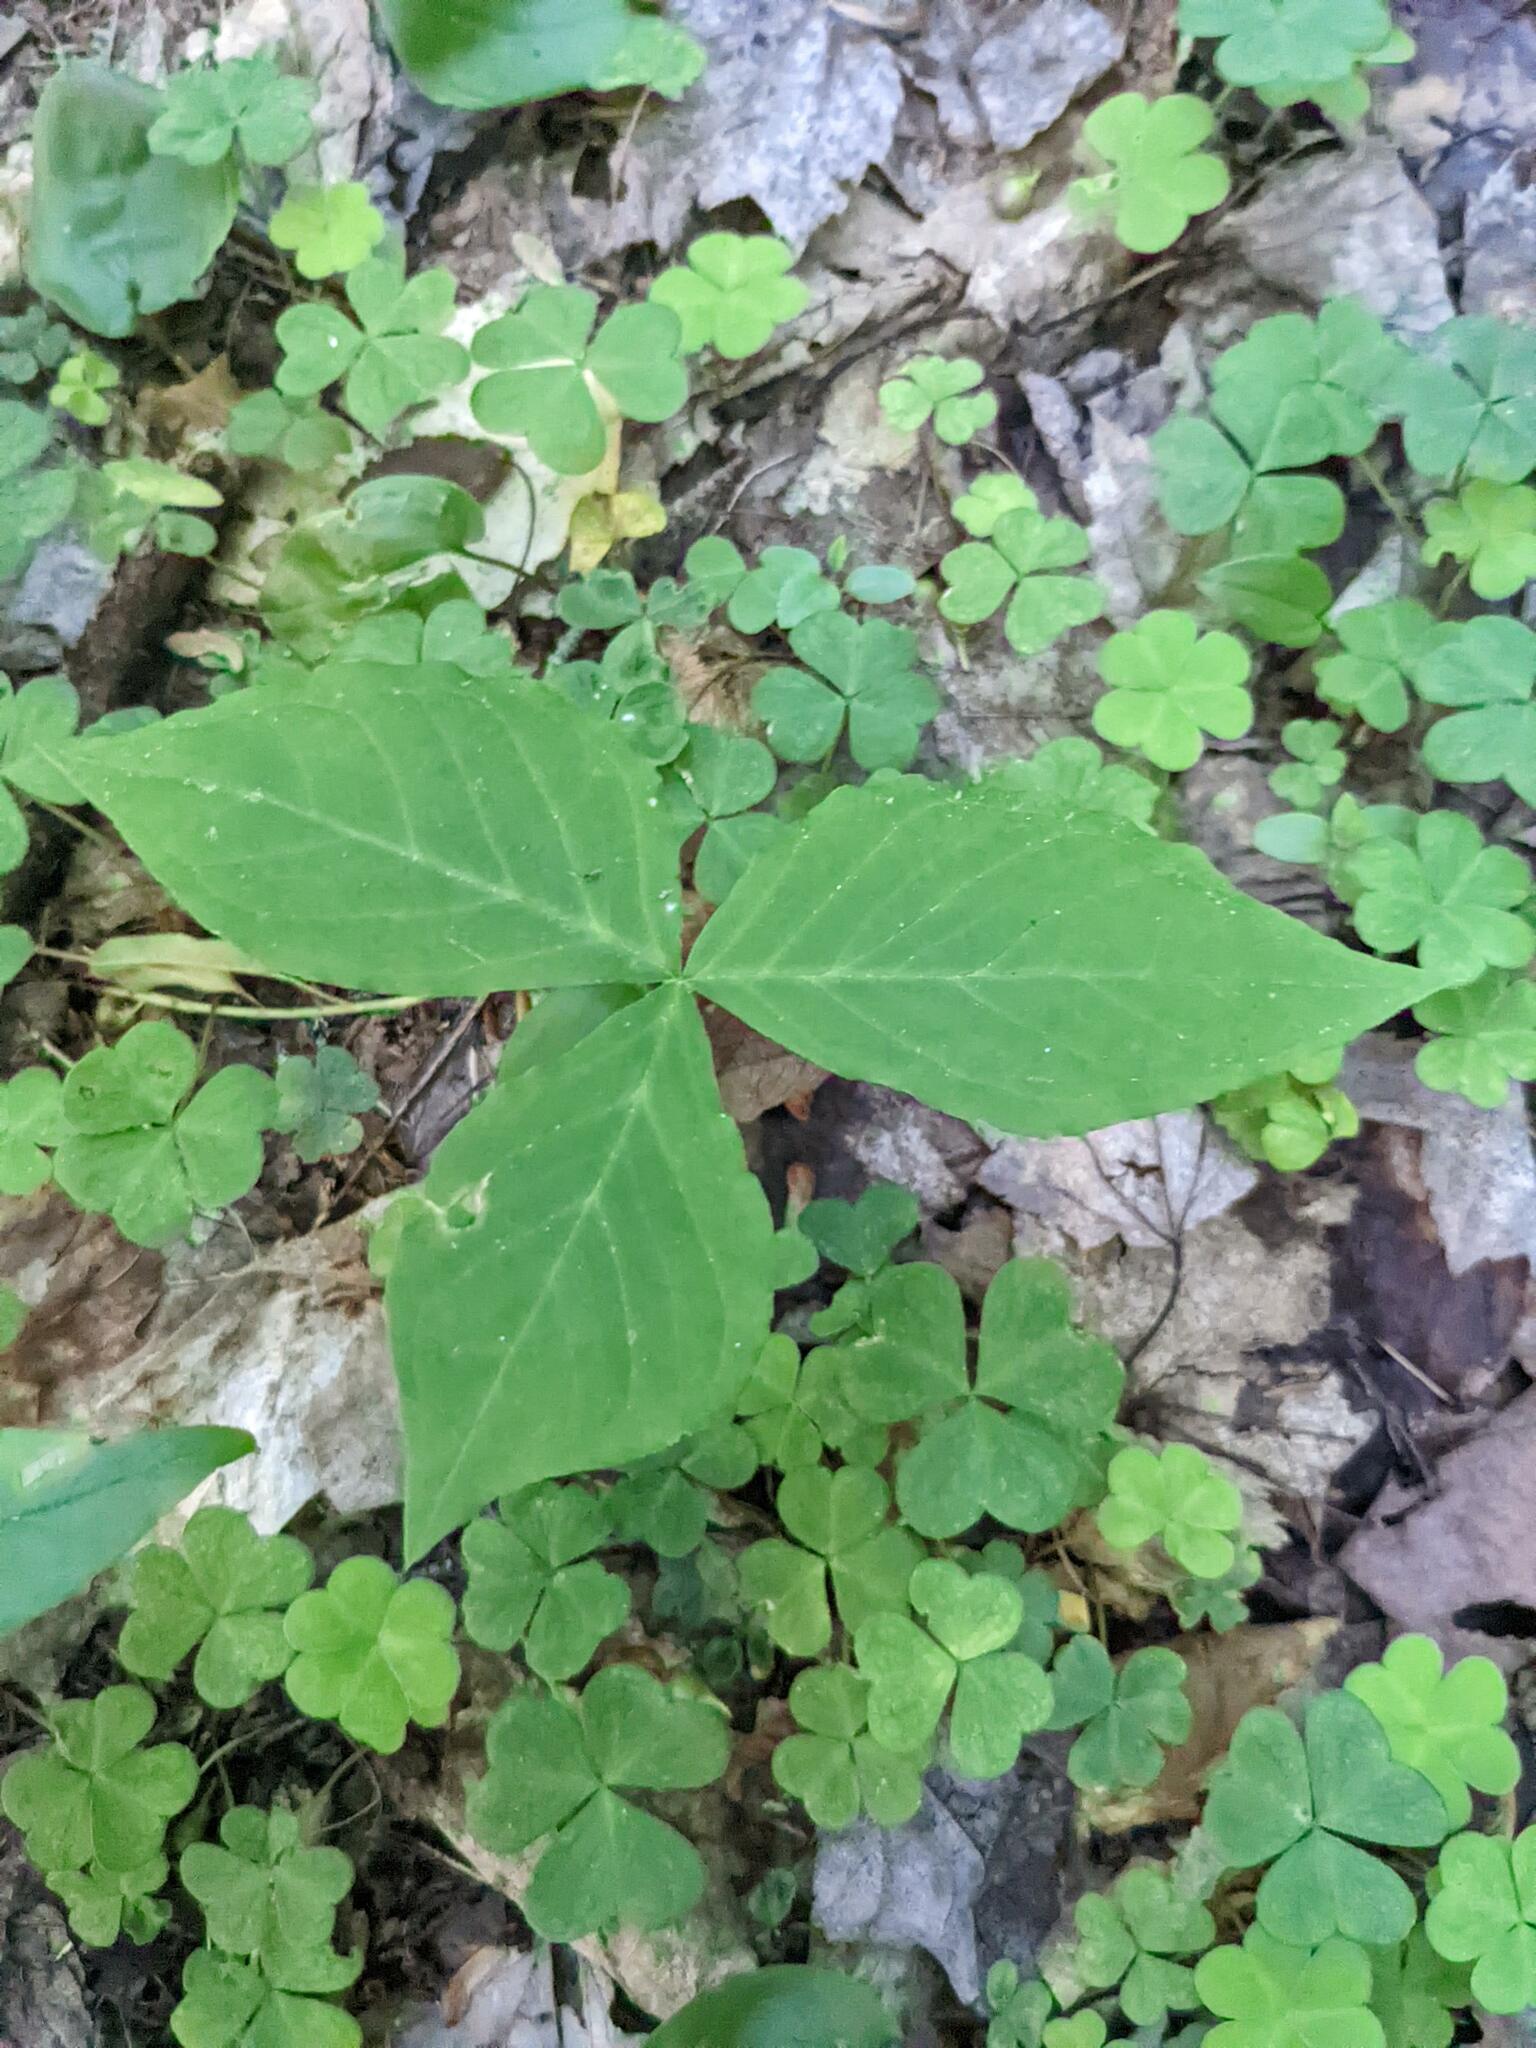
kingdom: Plantae
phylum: Tracheophyta
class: Liliopsida
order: Alismatales
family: Araceae
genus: Arisaema
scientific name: Arisaema triphyllum
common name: Jack-in-the-pulpit
